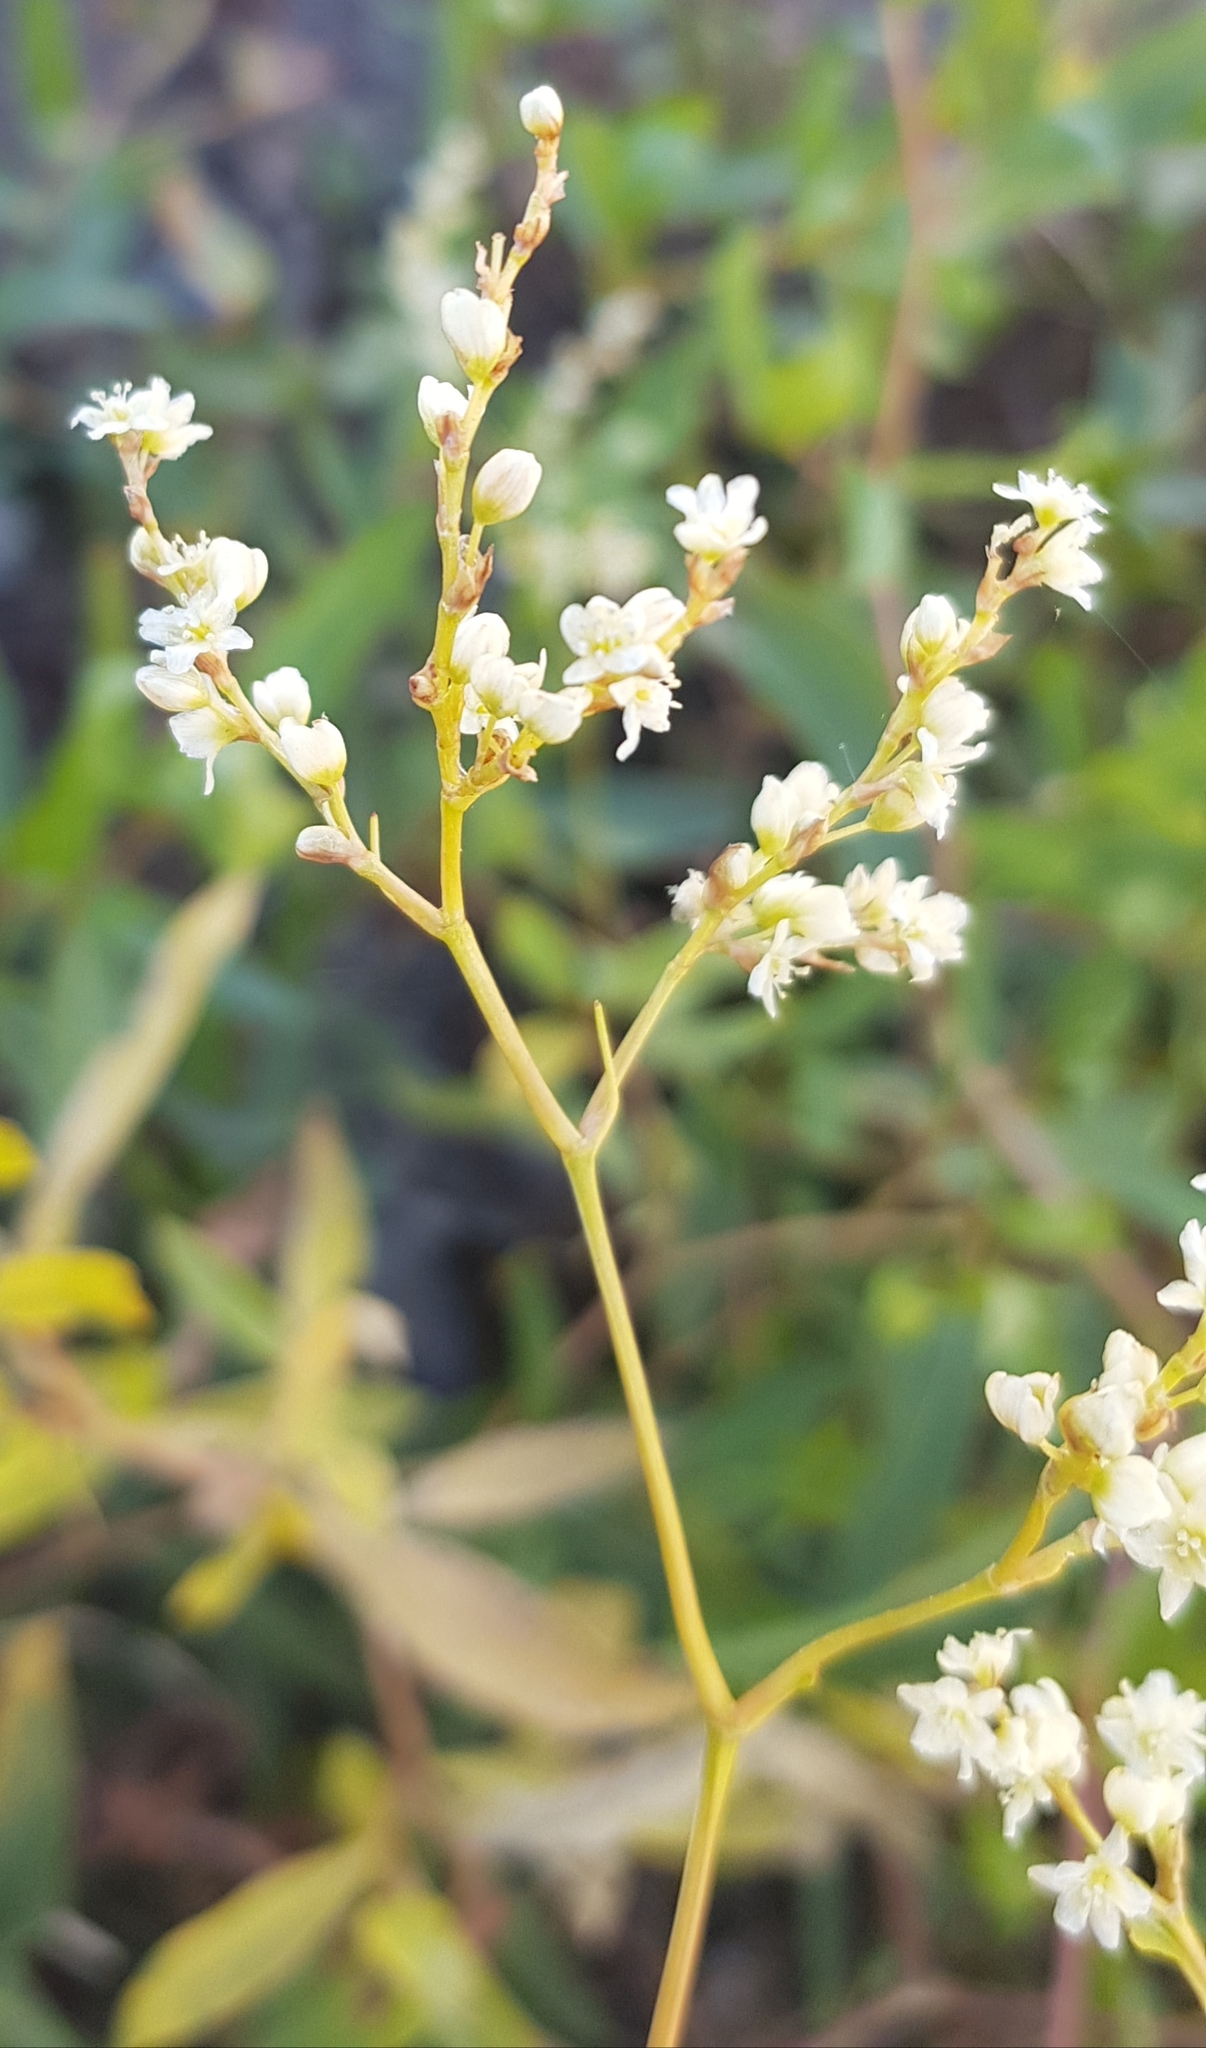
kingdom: Plantae
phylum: Tracheophyta
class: Magnoliopsida
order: Caryophyllales
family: Polygonaceae
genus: Koenigia
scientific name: Koenigia divaricata
